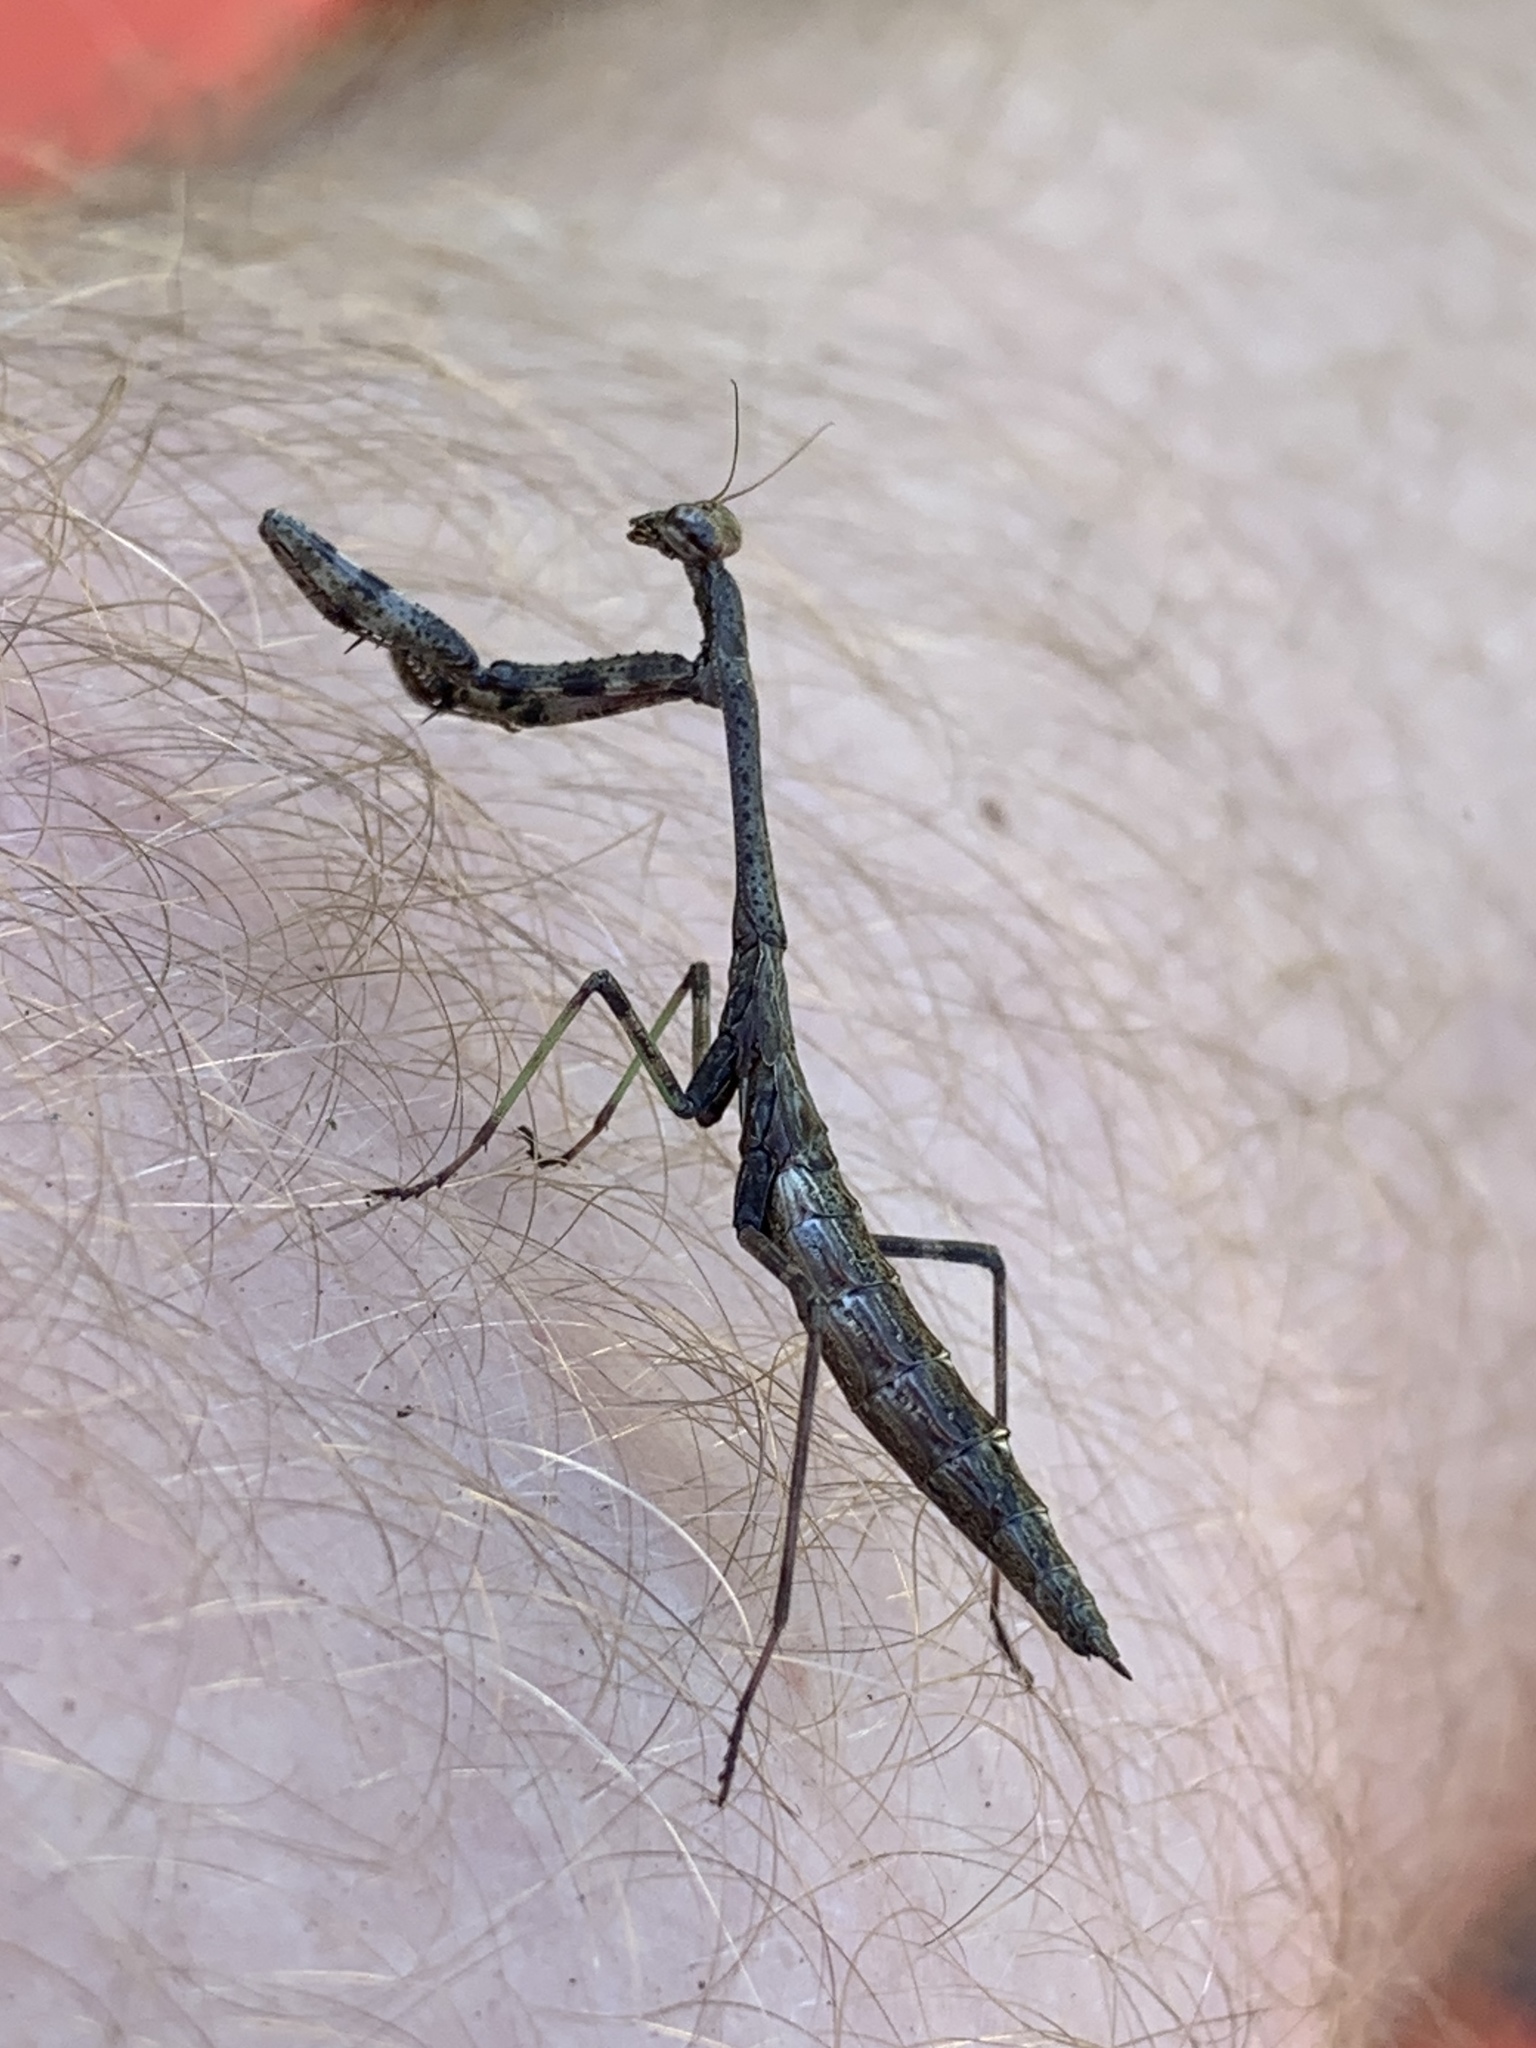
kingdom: Animalia
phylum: Arthropoda
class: Insecta
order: Mantodea
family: Mantidae
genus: Stagmomantis
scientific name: Stagmomantis carolina
